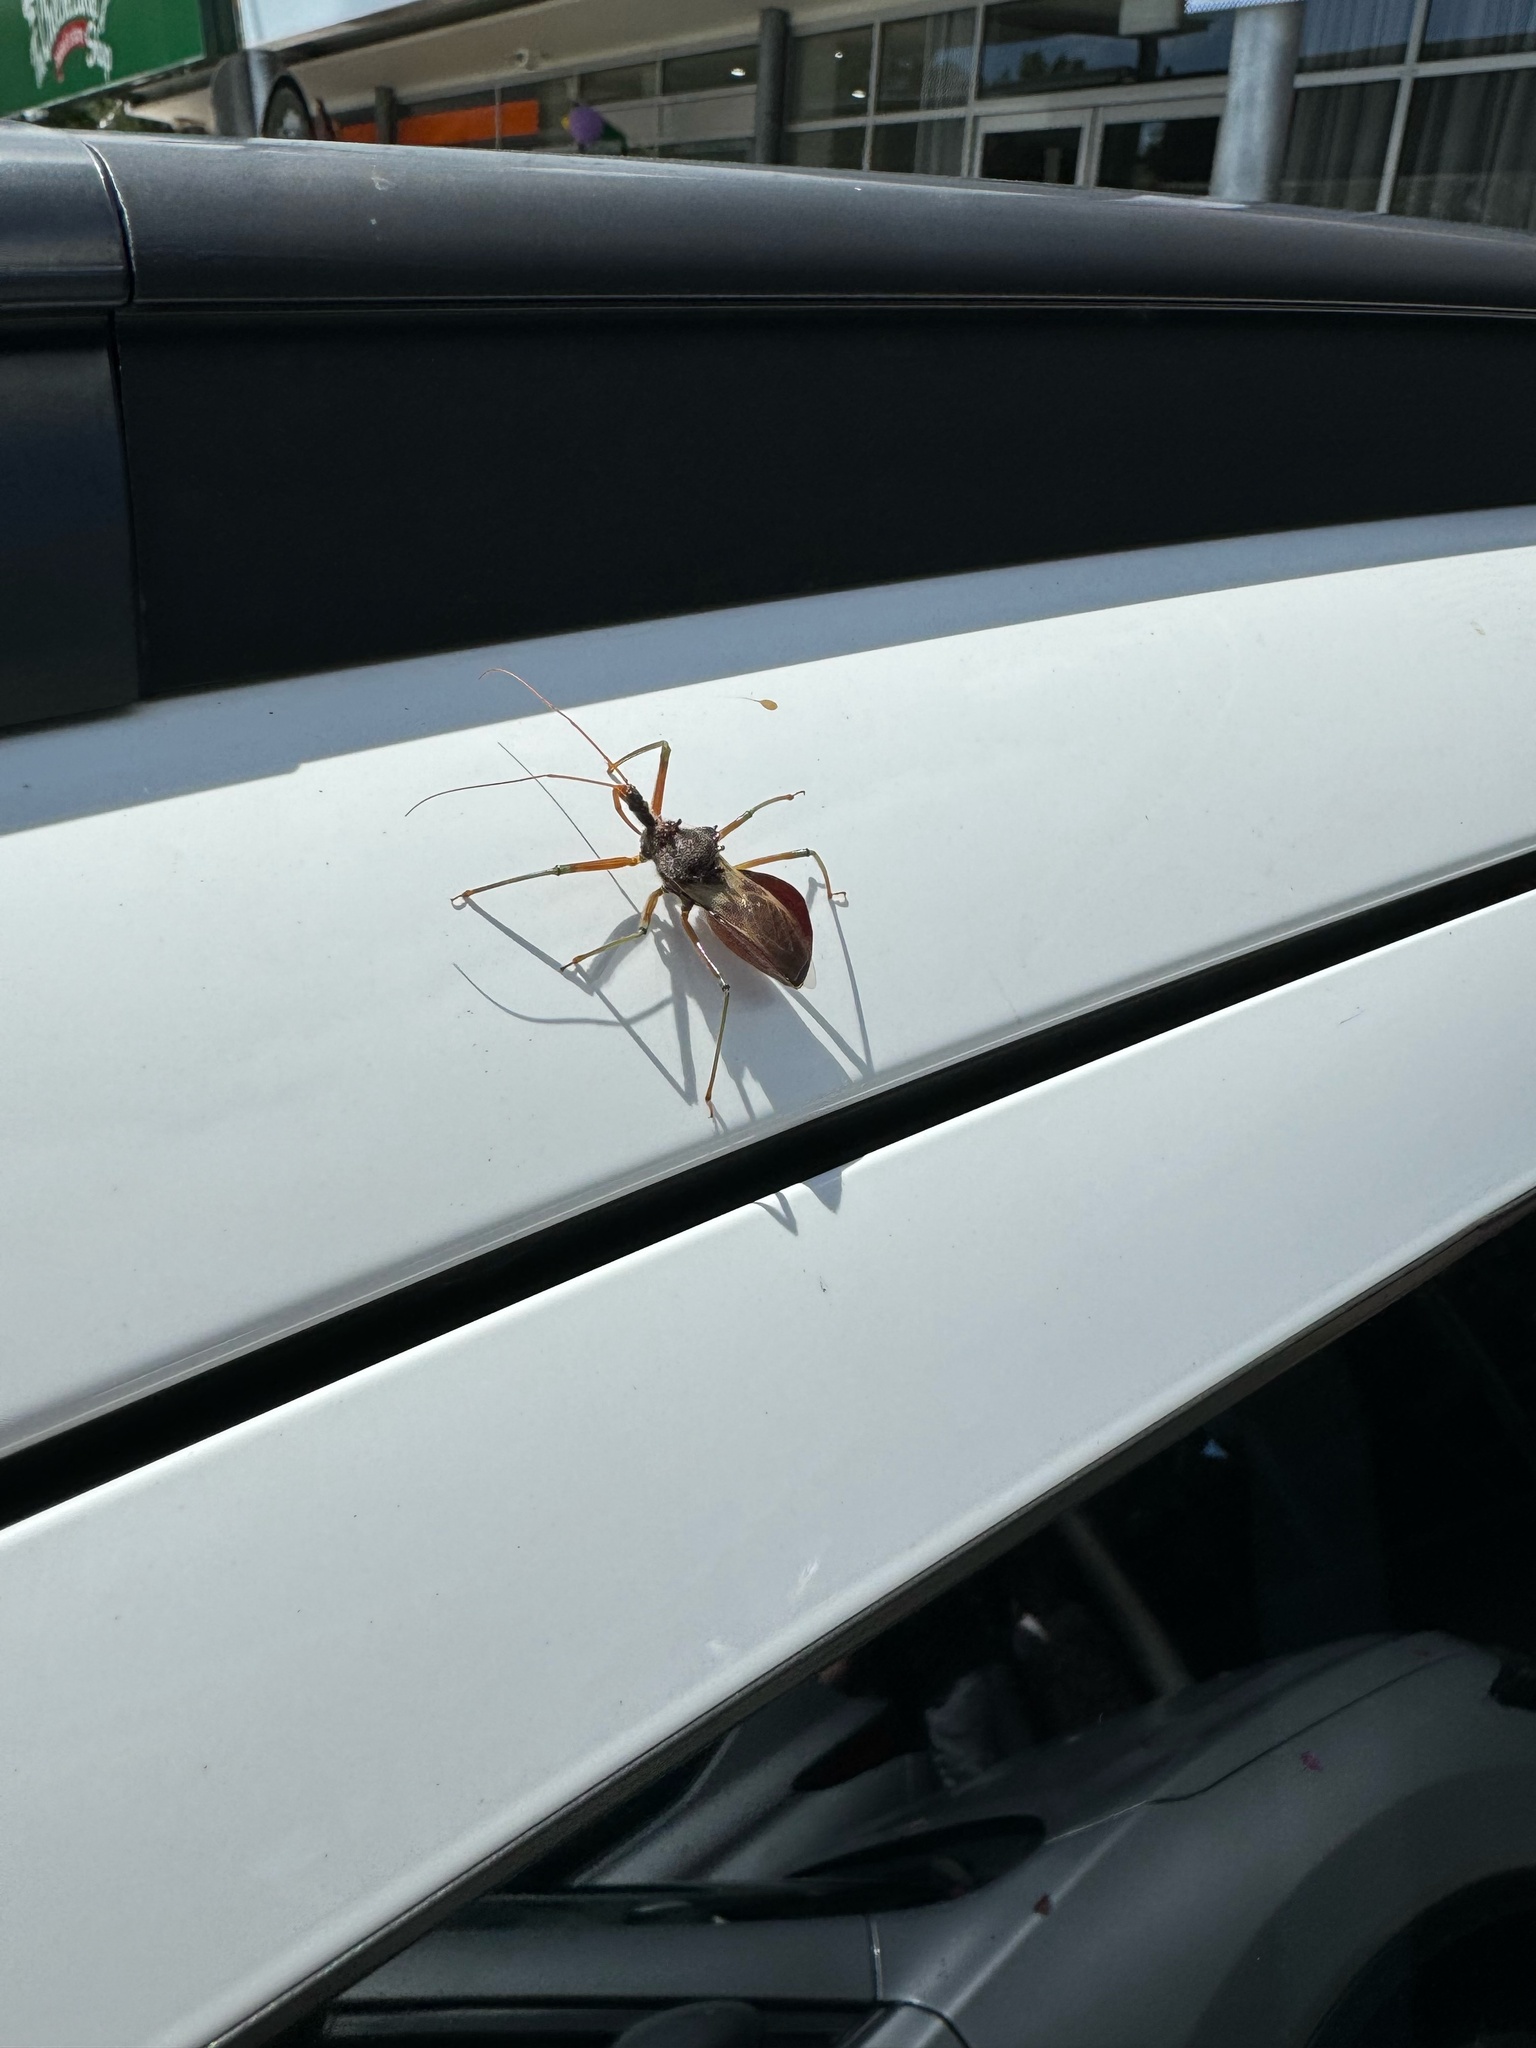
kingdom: Animalia
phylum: Arthropoda
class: Insecta
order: Hemiptera
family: Reduviidae
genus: Pristhesancus
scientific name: Pristhesancus plagipennis
